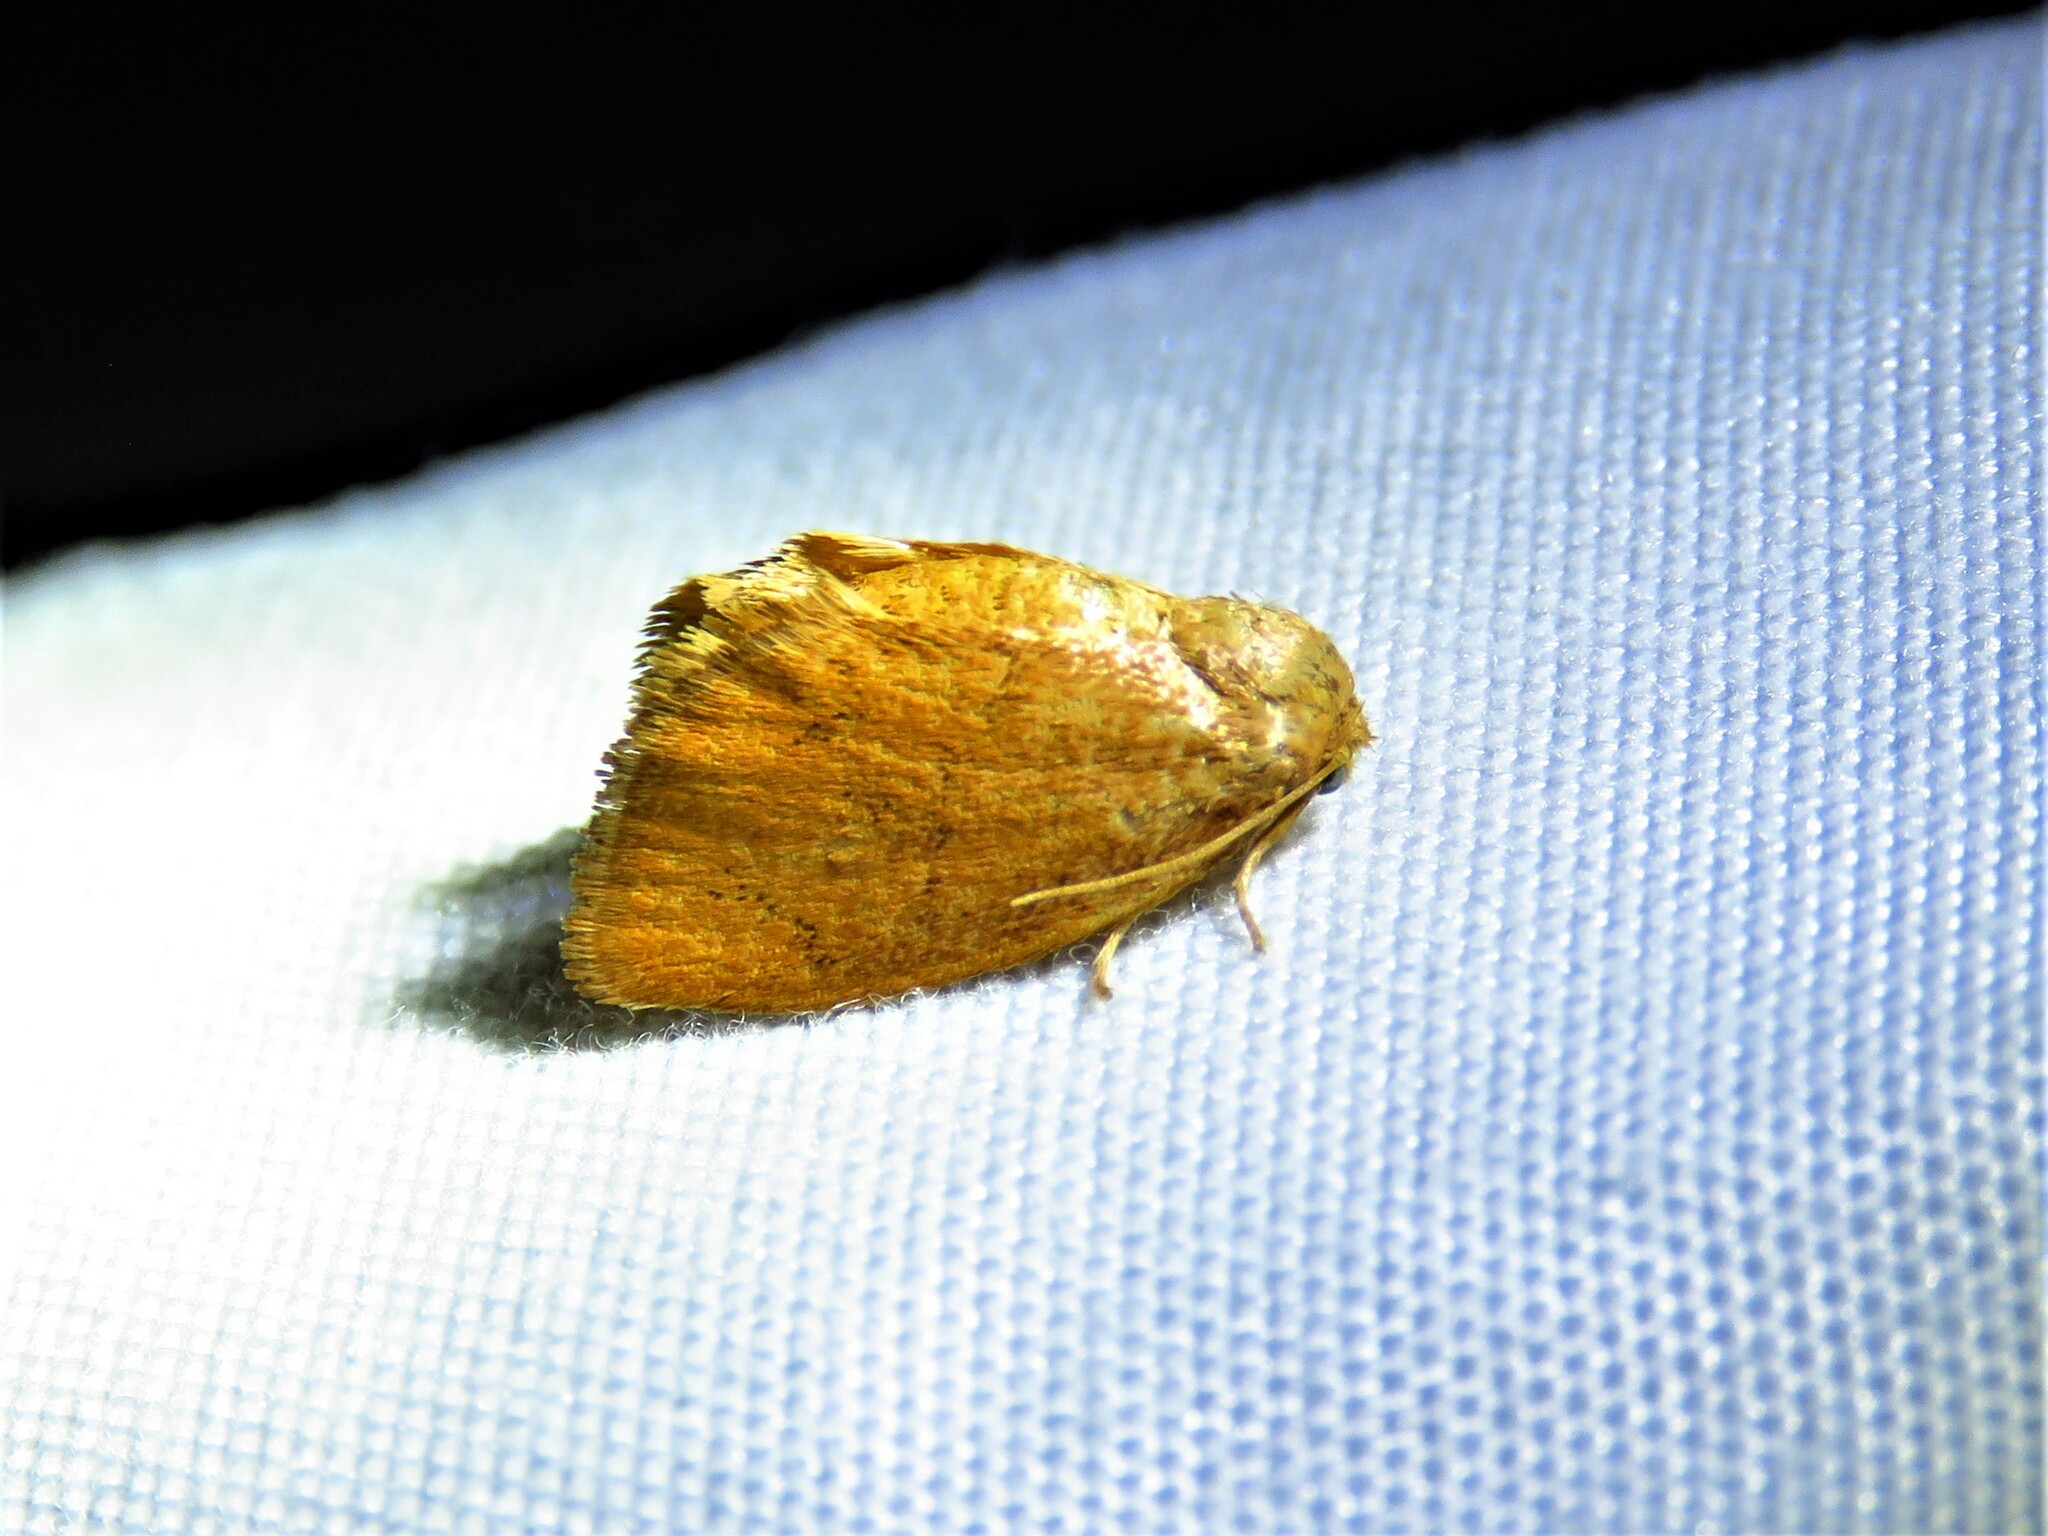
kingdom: Animalia
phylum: Arthropoda
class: Insecta
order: Lepidoptera
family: Limacodidae
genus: Heterogenea
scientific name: Heterogenea shurtleffi
